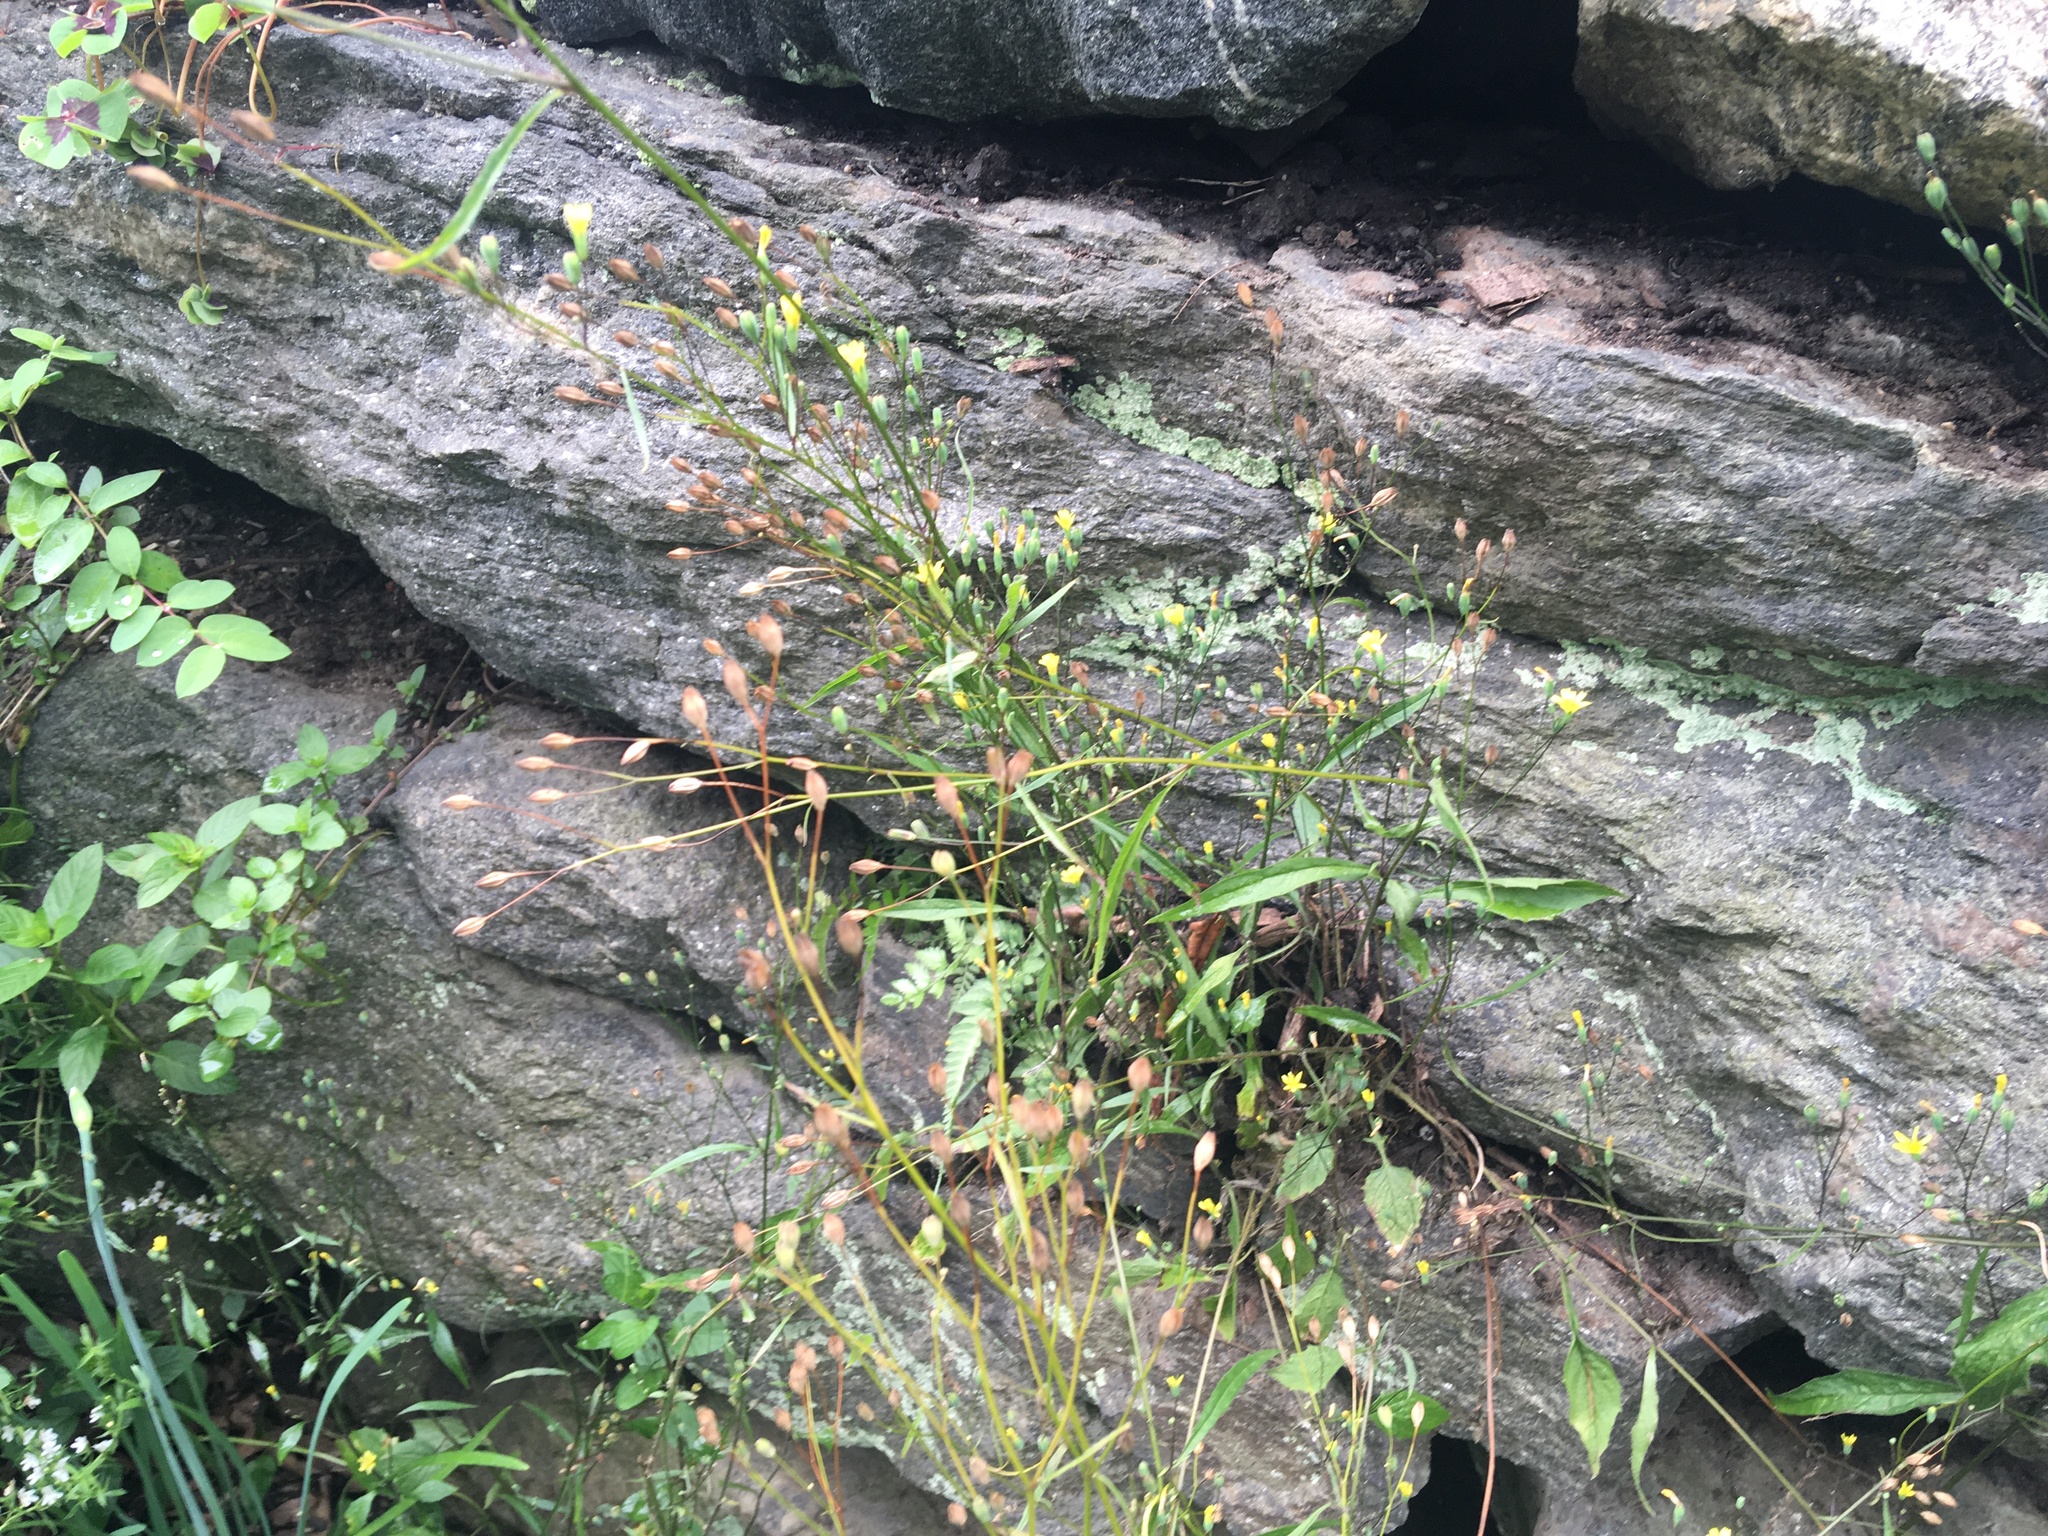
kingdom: Plantae
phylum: Tracheophyta
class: Magnoliopsida
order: Asterales
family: Asteraceae
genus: Lapsana
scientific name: Lapsana communis
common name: Nipplewort
